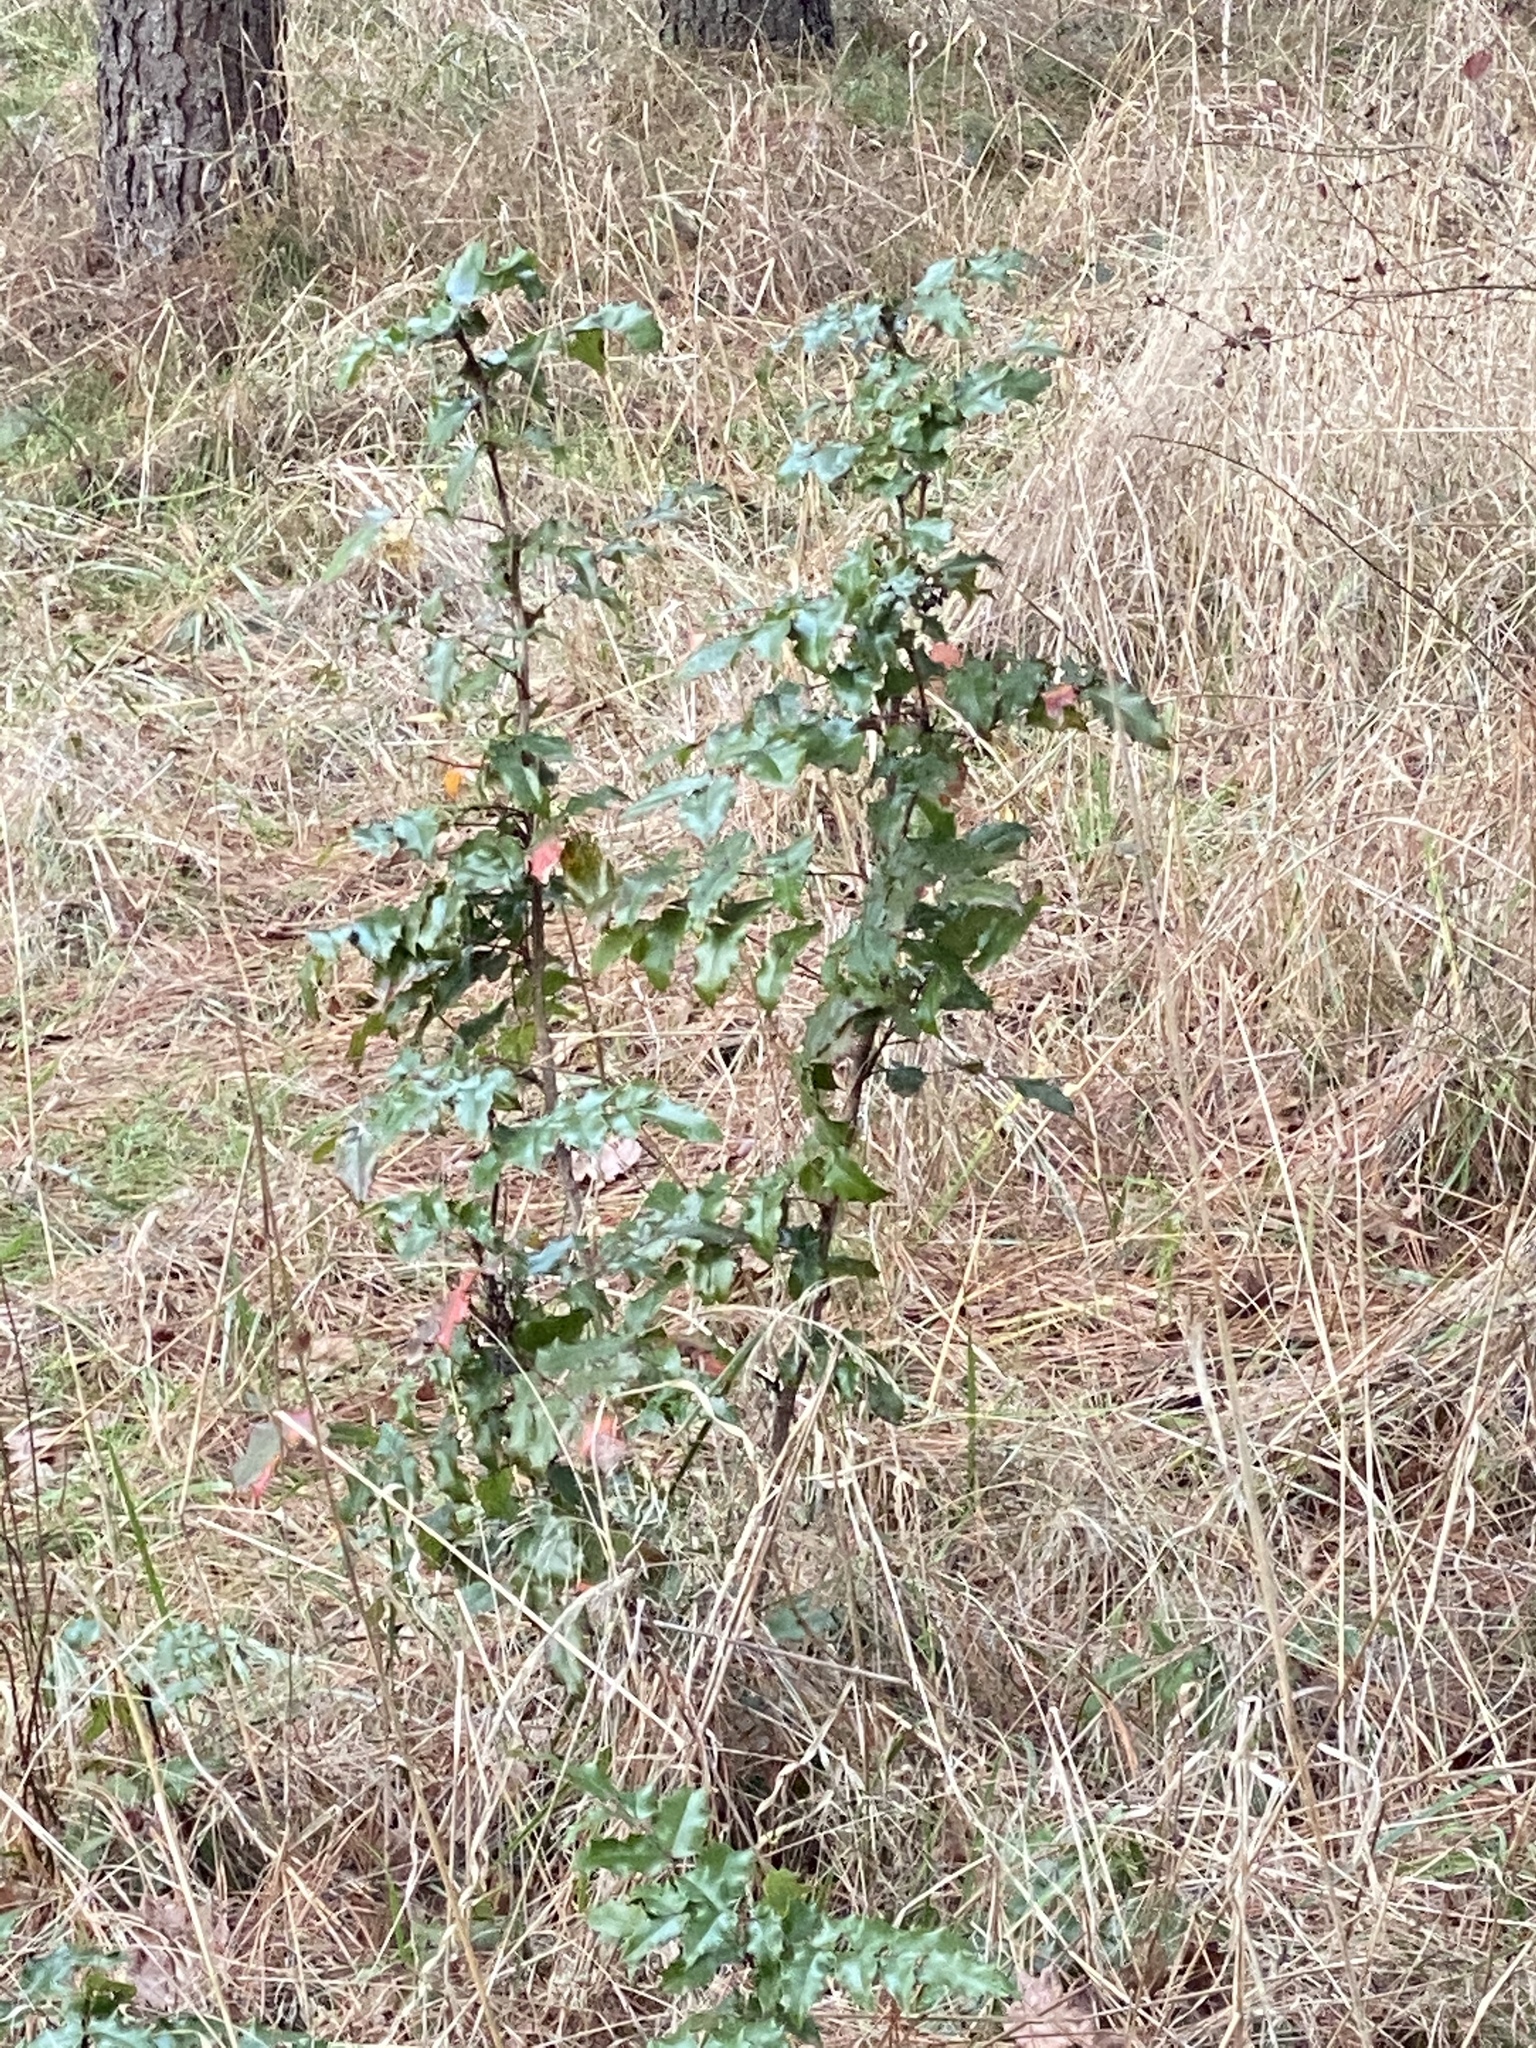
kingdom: Plantae
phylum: Tracheophyta
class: Magnoliopsida
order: Ranunculales
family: Berberidaceae
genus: Mahonia
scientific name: Mahonia aquifolium
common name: Oregon-grape
